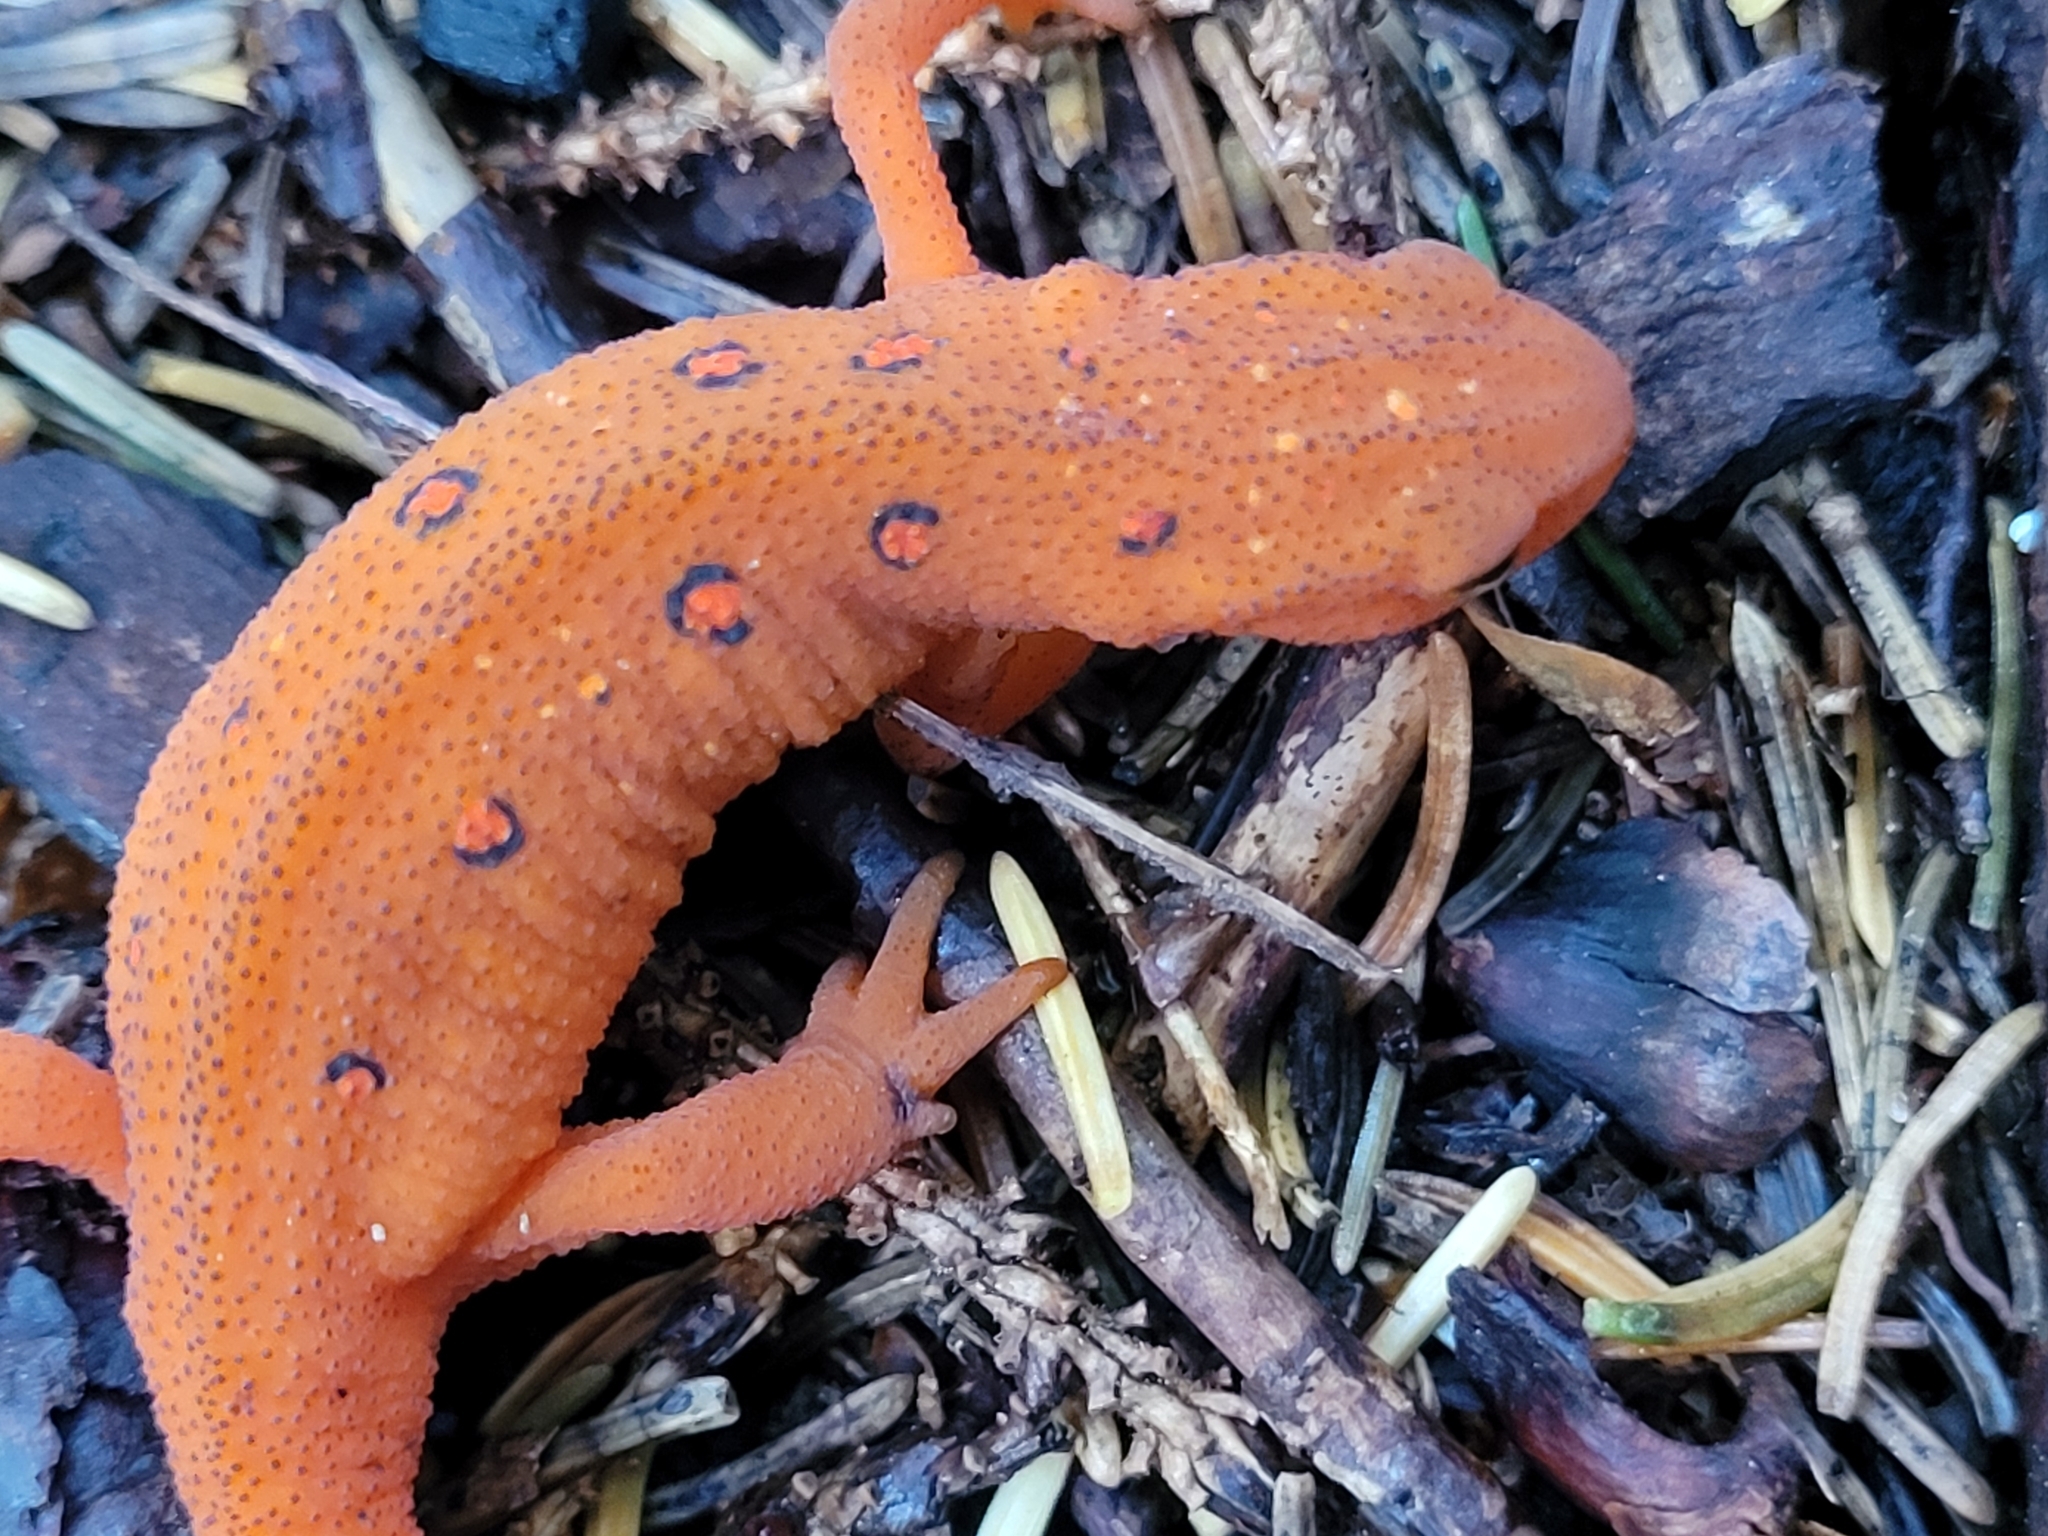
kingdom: Animalia
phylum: Chordata
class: Amphibia
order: Caudata
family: Salamandridae
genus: Notophthalmus
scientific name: Notophthalmus viridescens
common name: Eastern newt
